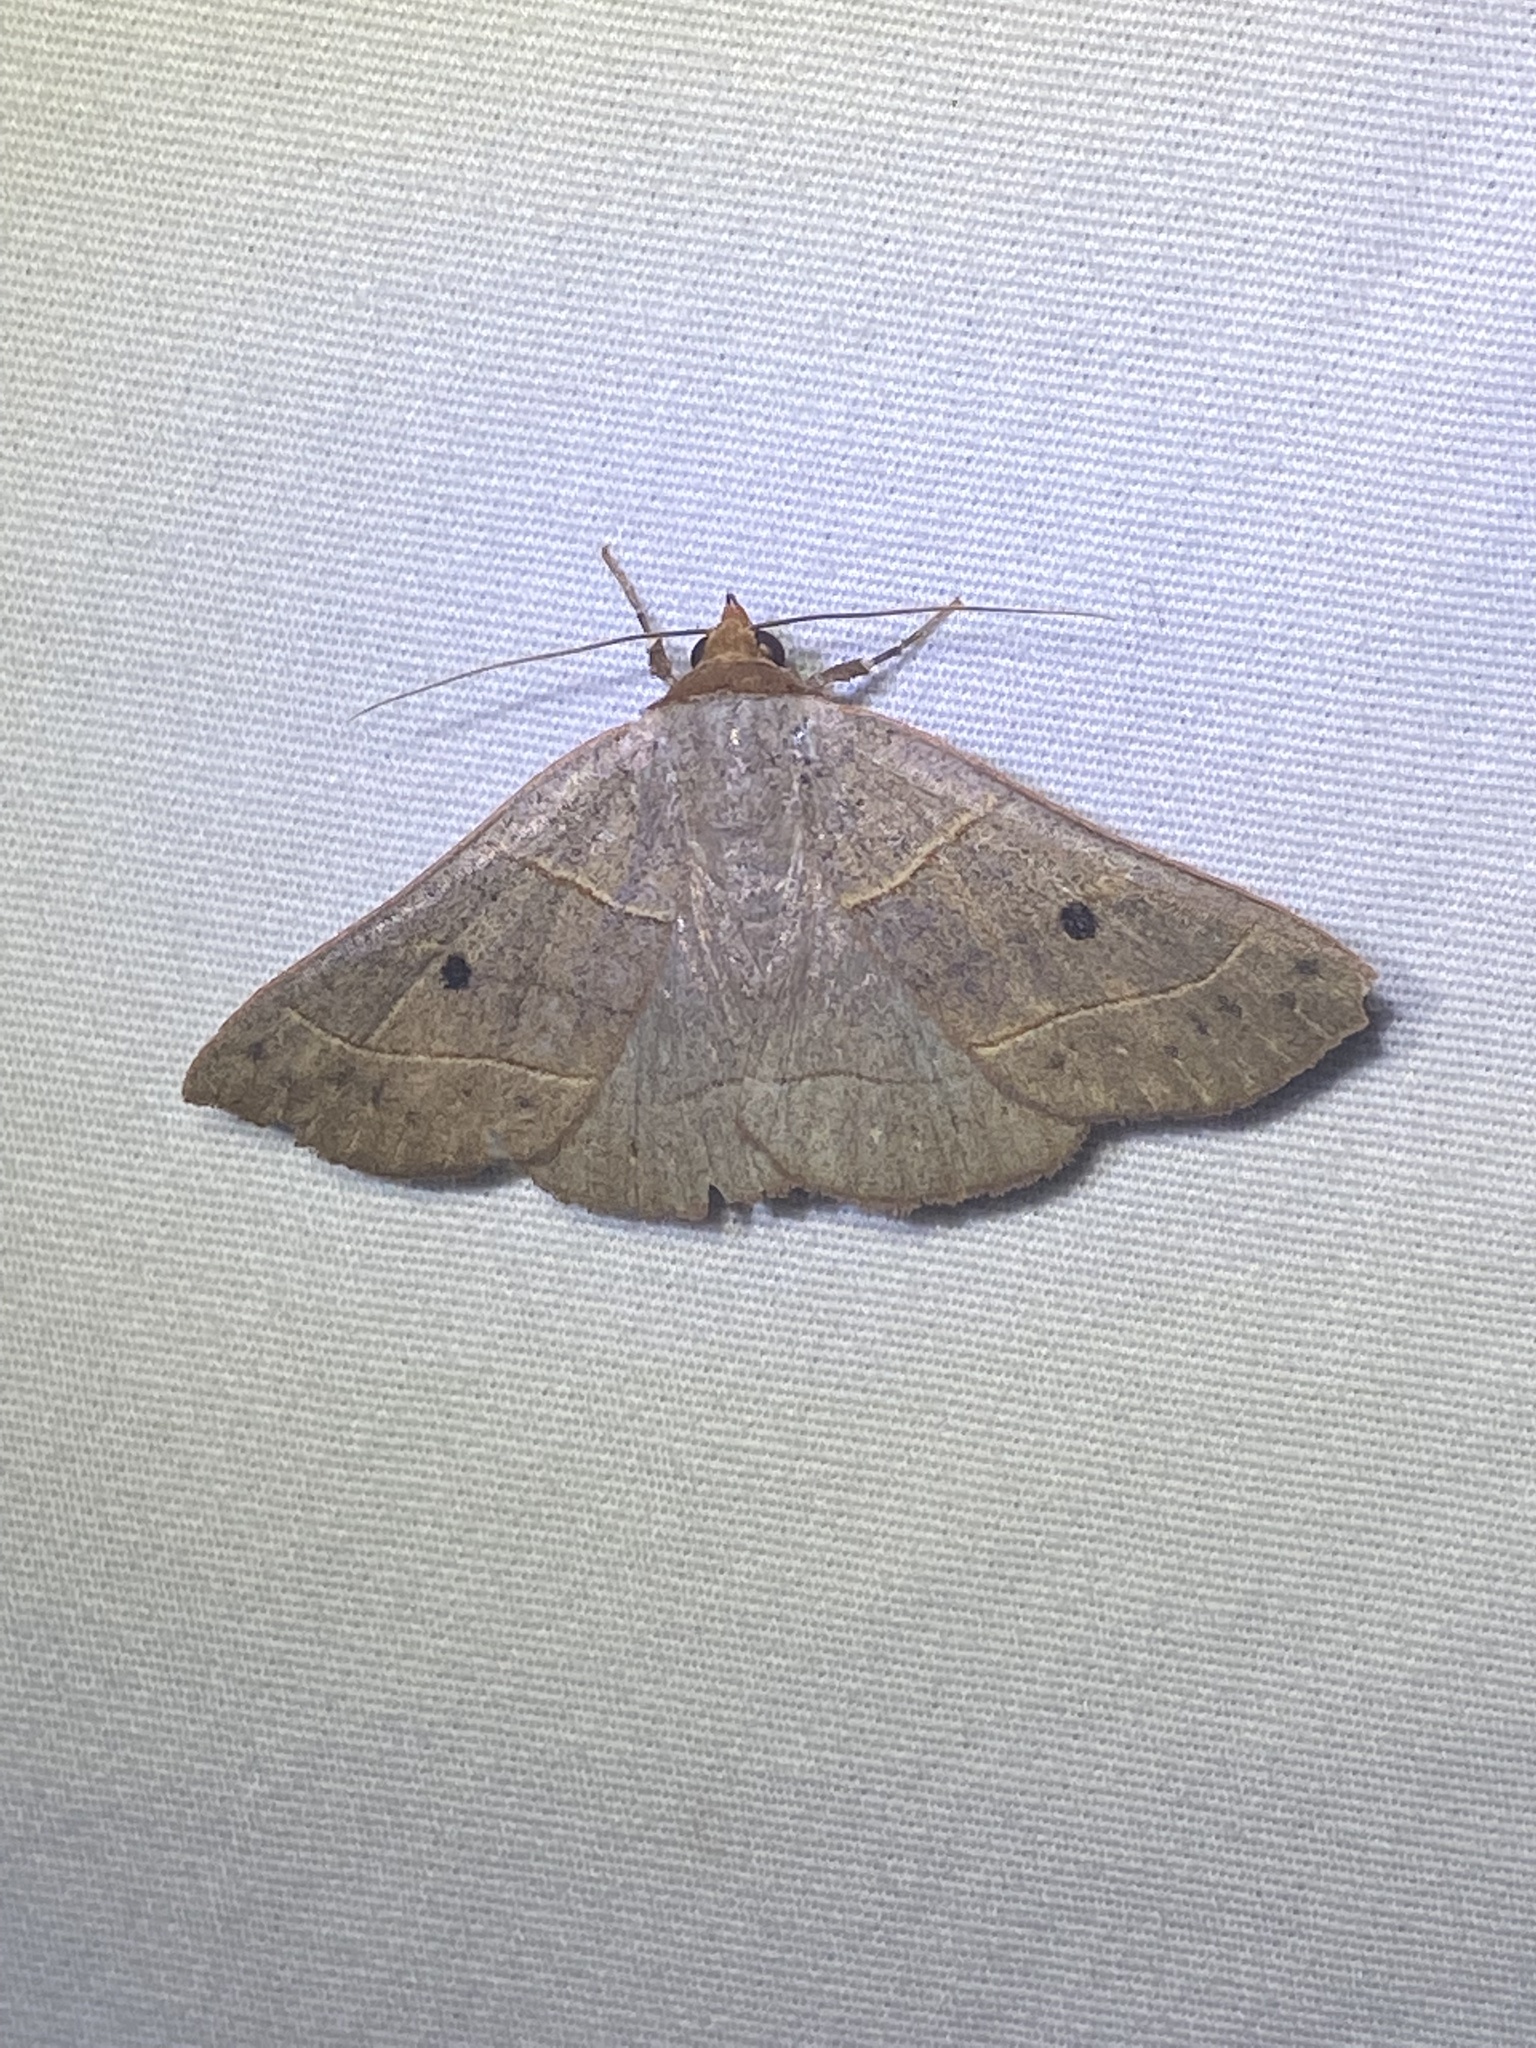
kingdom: Animalia
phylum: Arthropoda
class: Insecta
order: Lepidoptera
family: Erebidae
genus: Panopoda
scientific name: Panopoda rufimargo
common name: Red-lined panopoda moth
